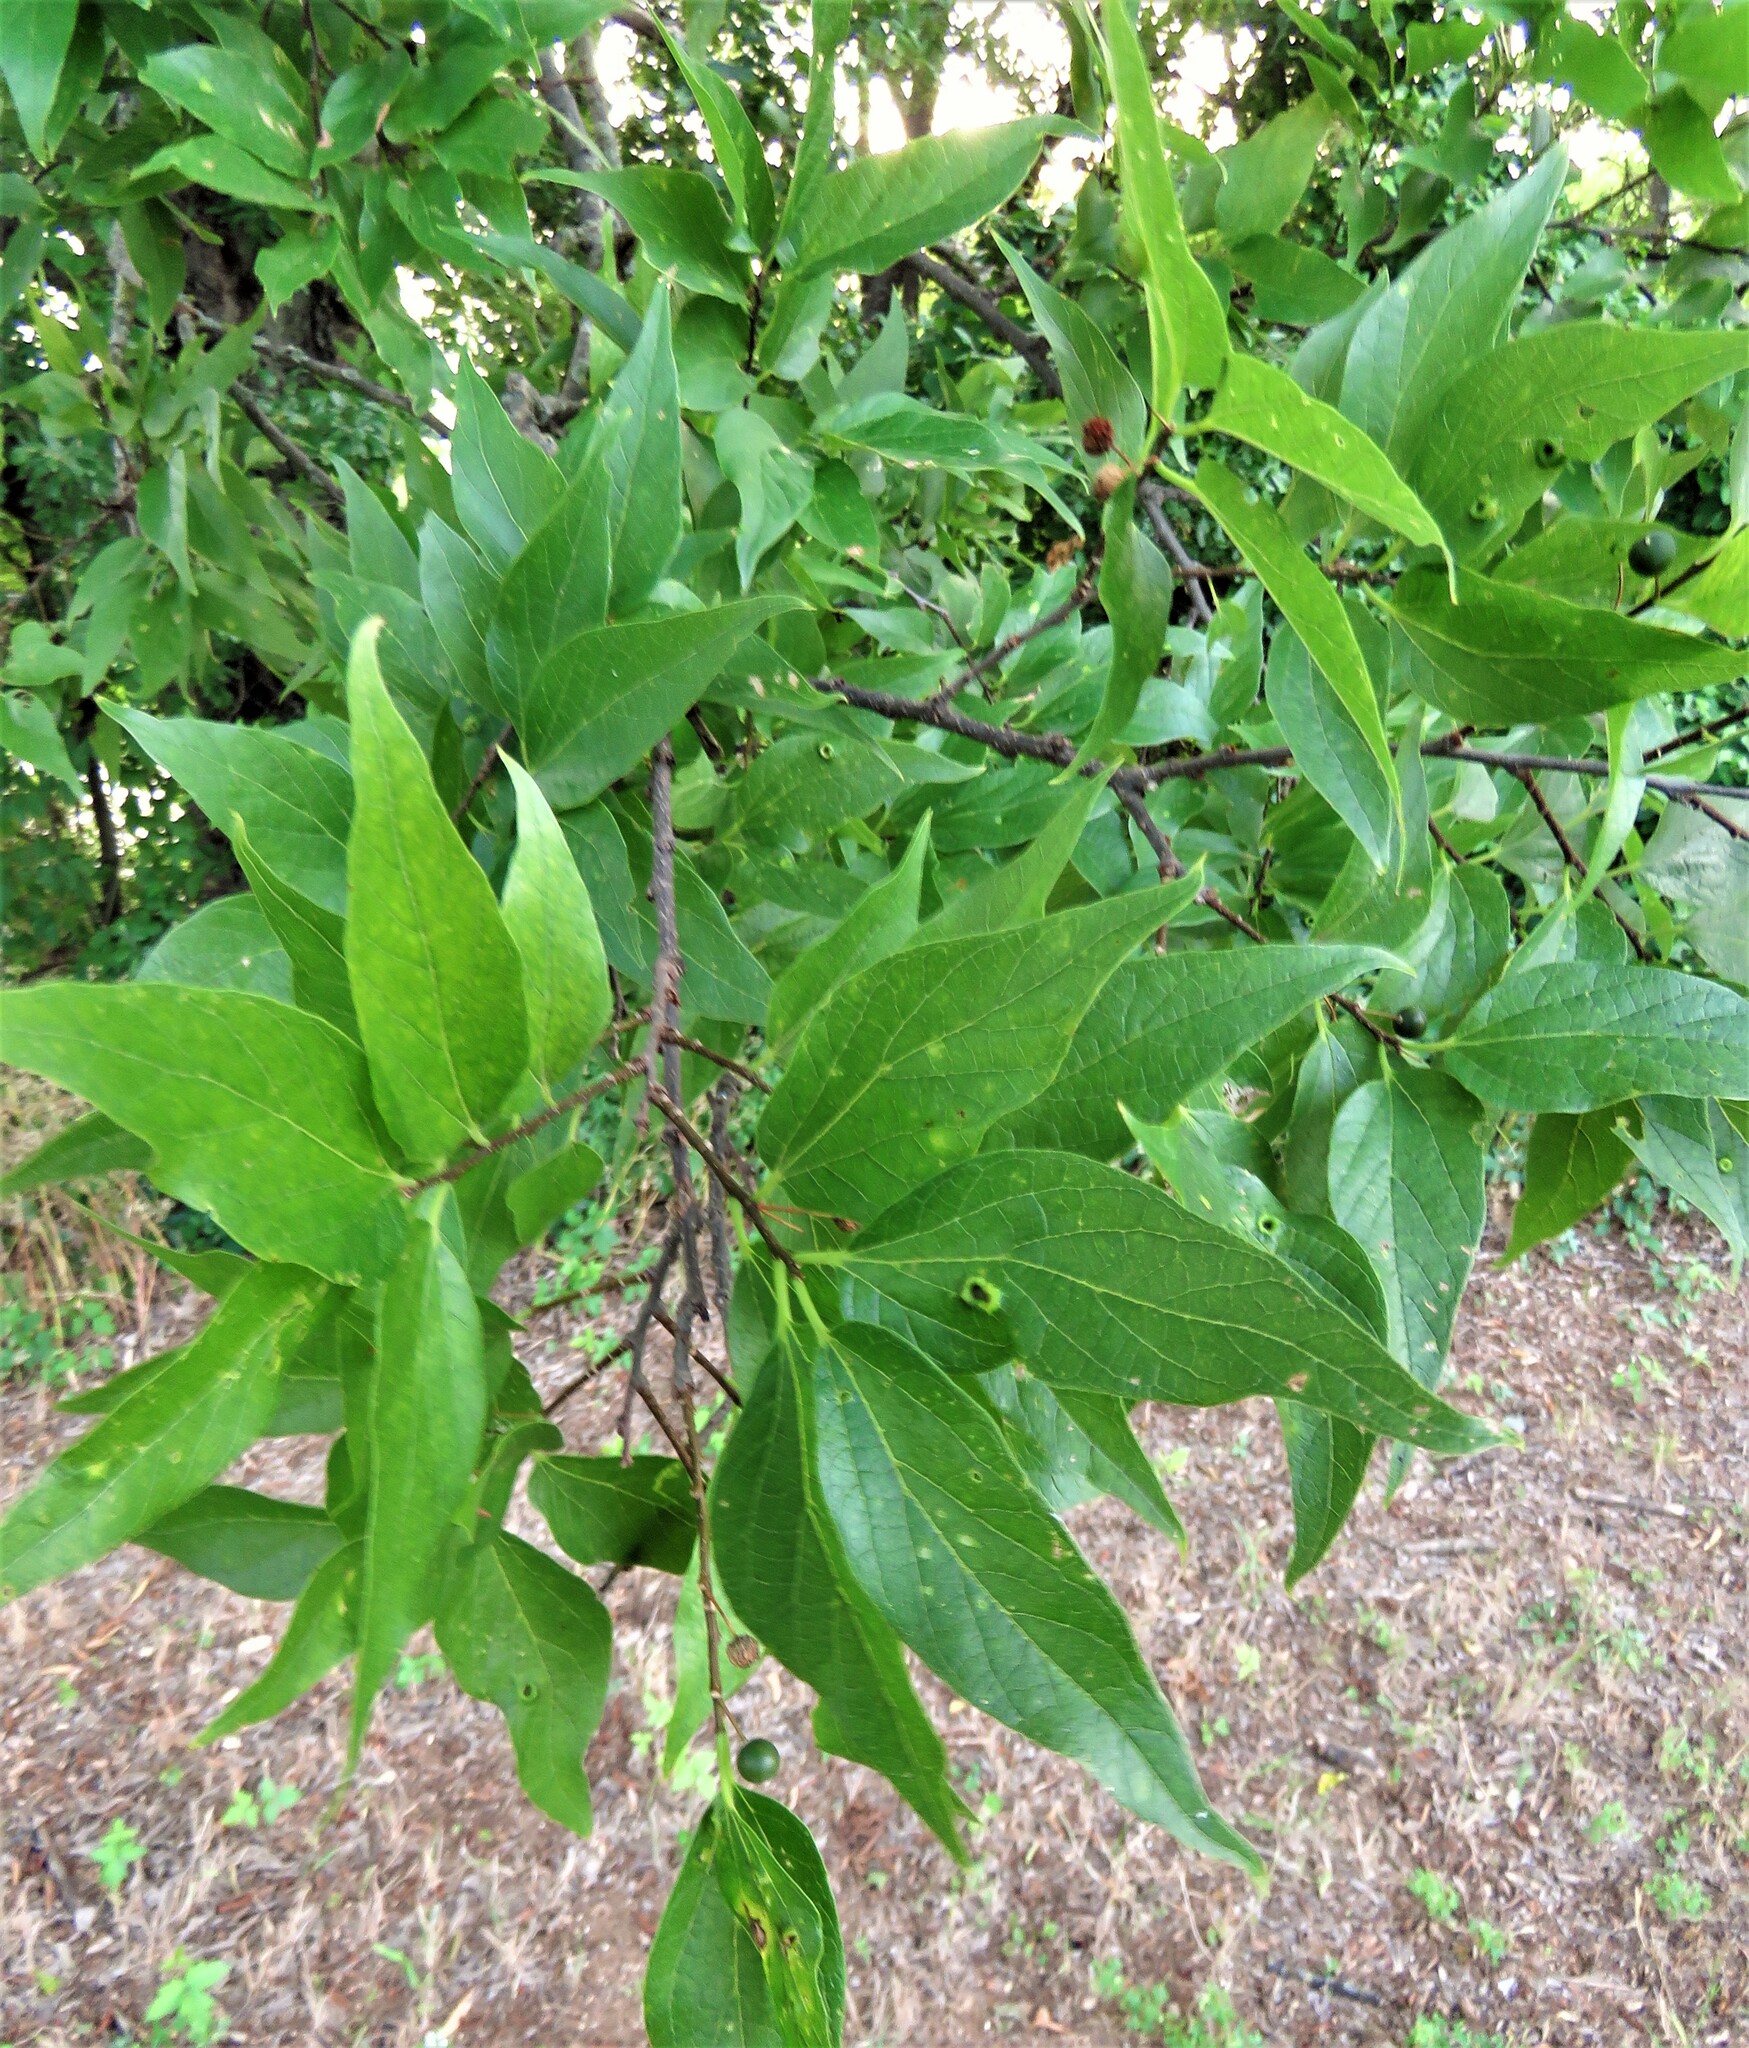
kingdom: Plantae
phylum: Tracheophyta
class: Magnoliopsida
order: Rosales
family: Cannabaceae
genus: Celtis
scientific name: Celtis laevigata
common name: Sugarberry
